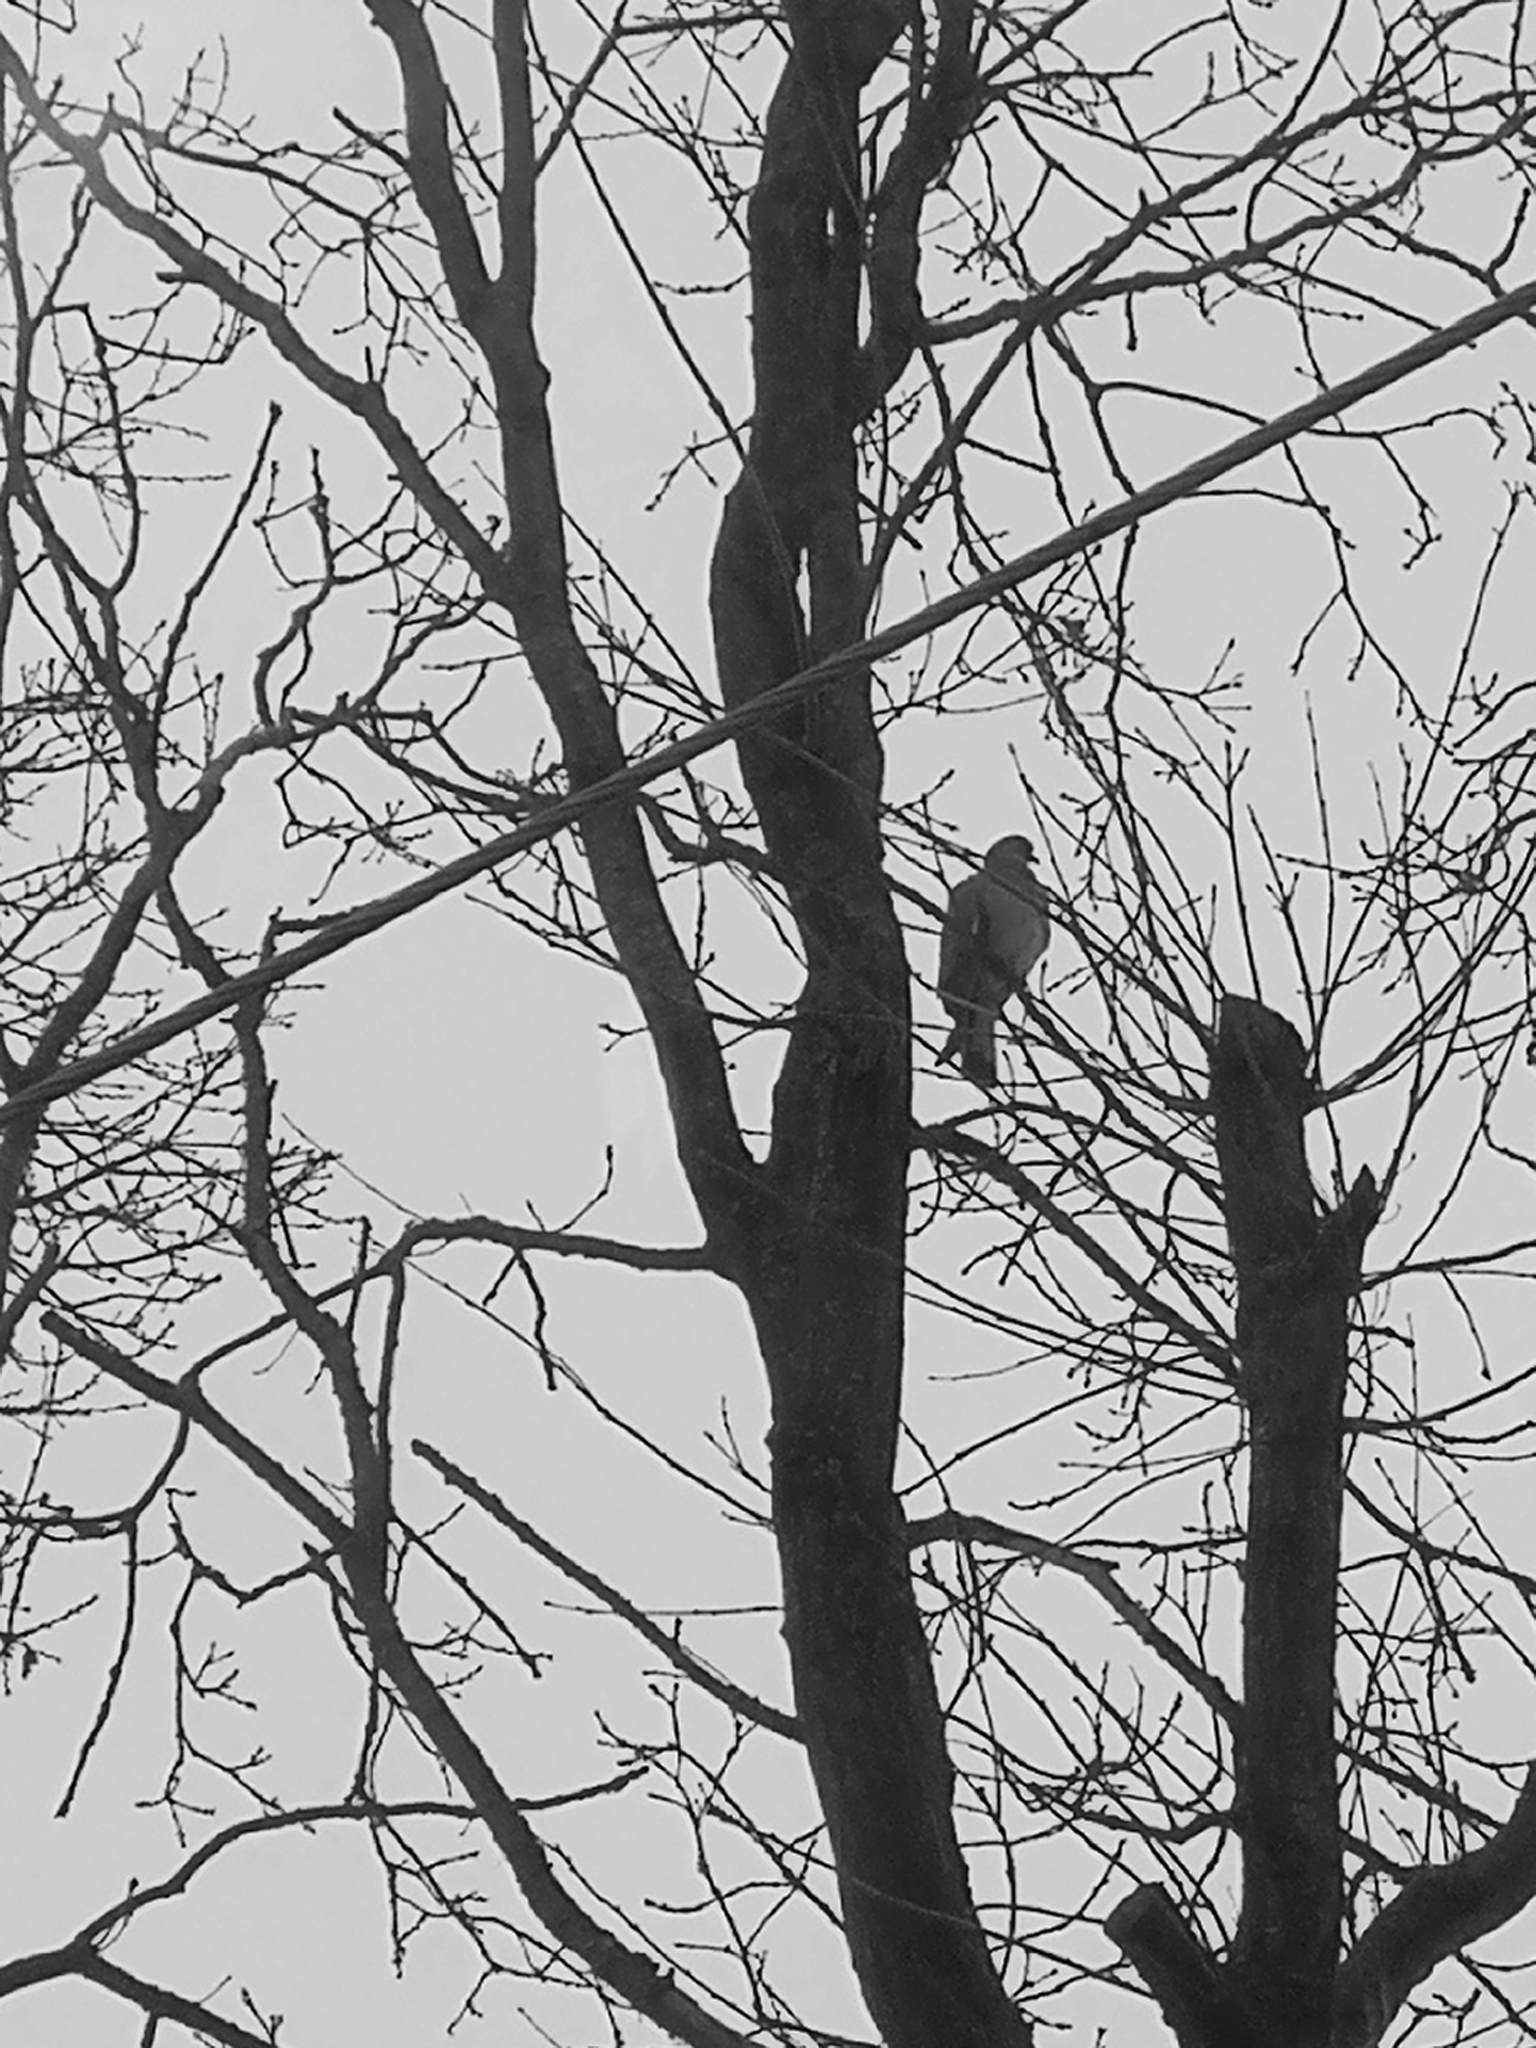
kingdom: Animalia
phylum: Chordata
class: Aves
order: Columbiformes
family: Columbidae
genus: Columba
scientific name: Columba palumbus
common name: Common wood pigeon
